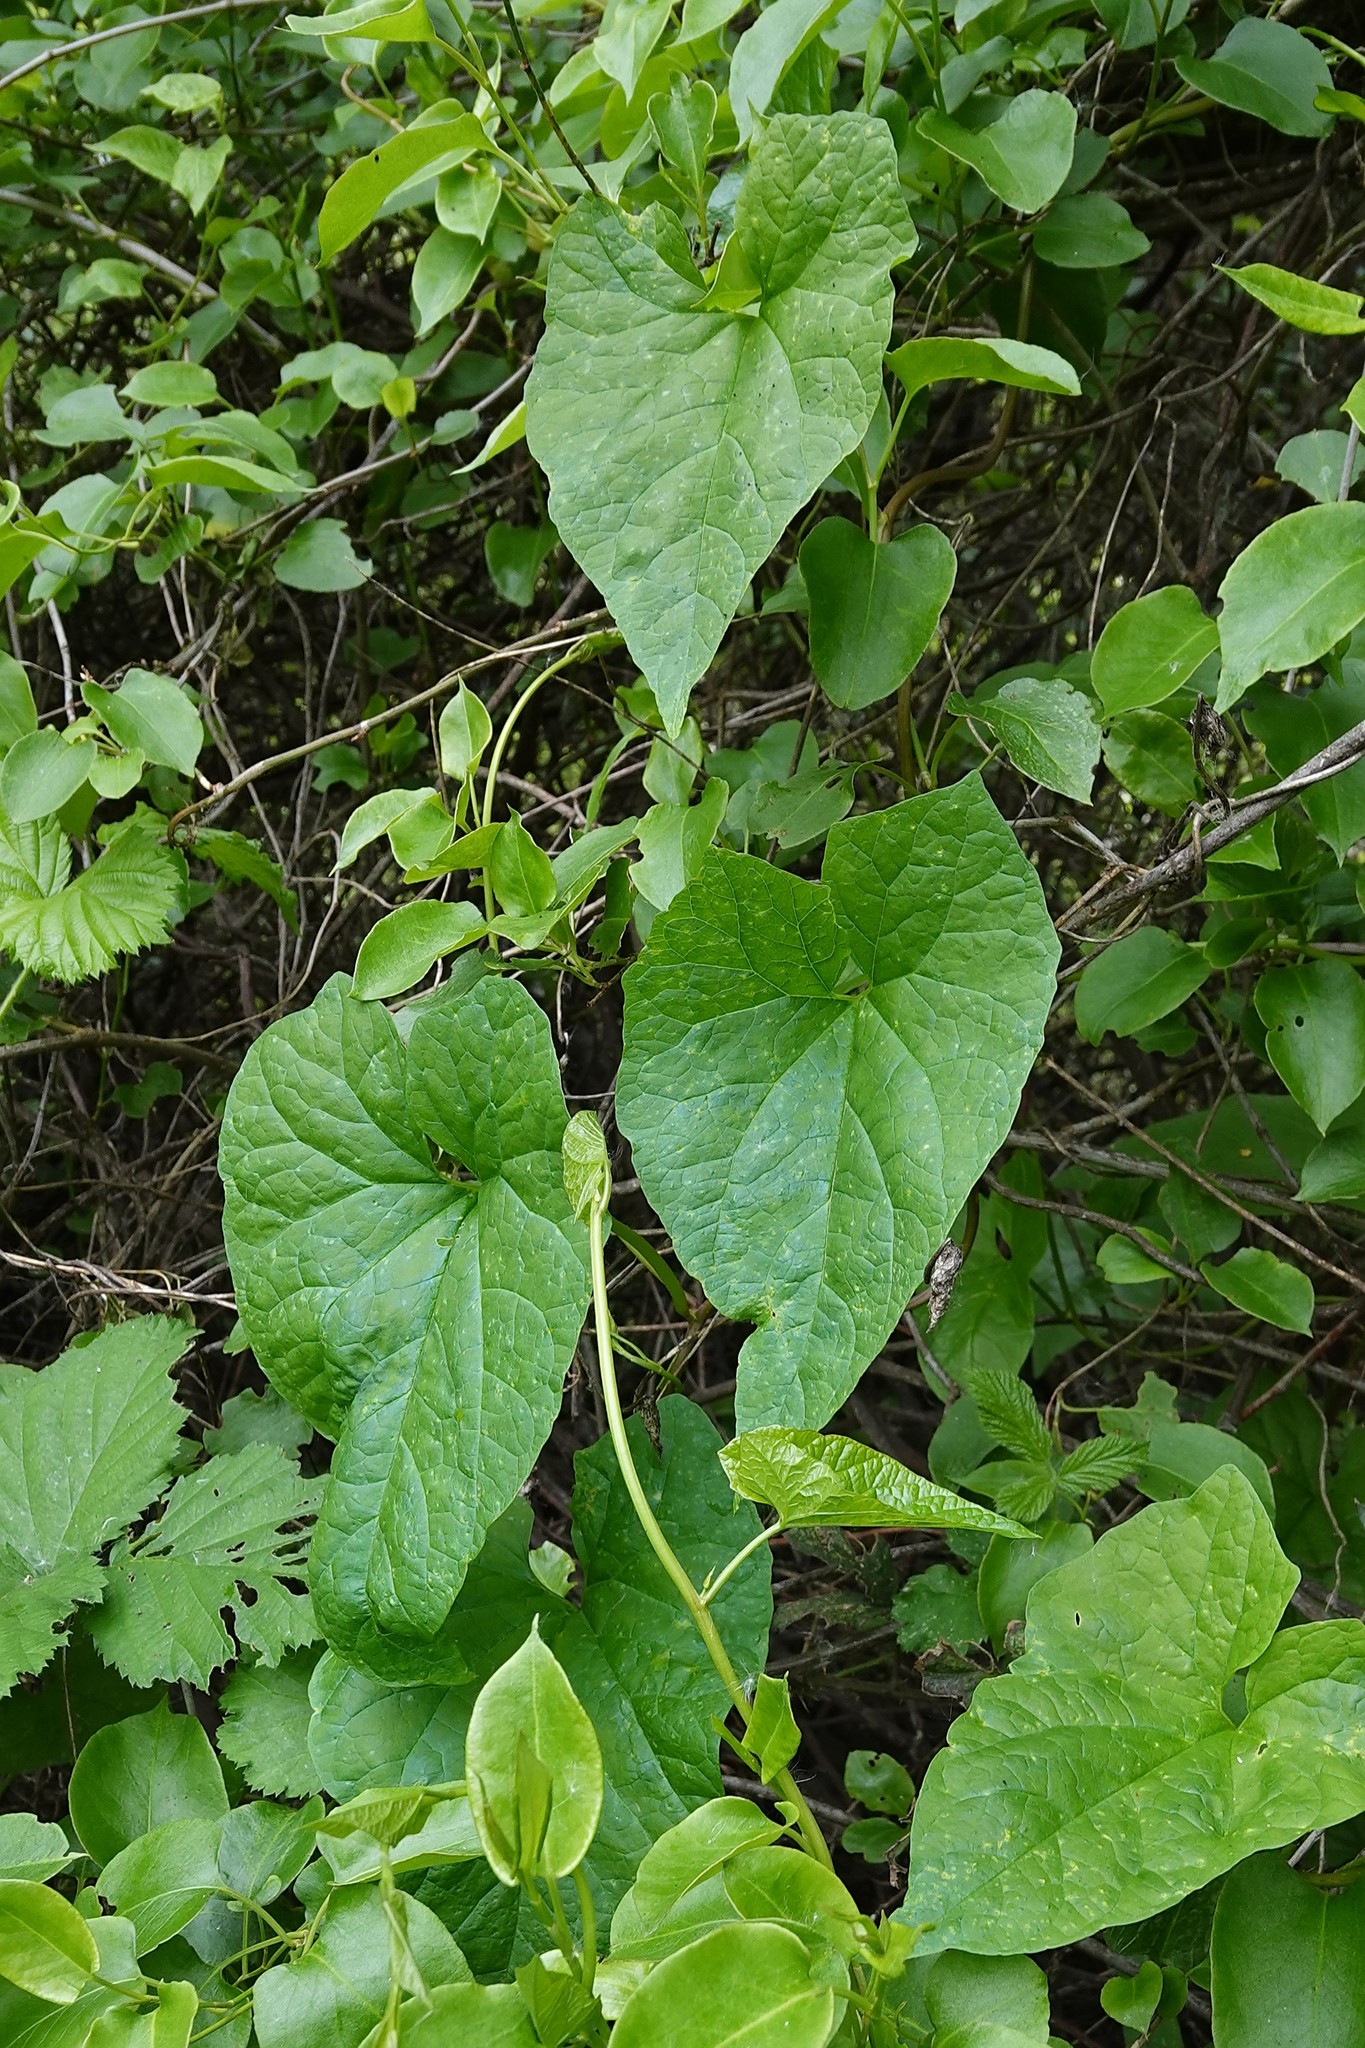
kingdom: Plantae
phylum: Tracheophyta
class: Magnoliopsida
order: Solanales
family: Convolvulaceae
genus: Calystegia
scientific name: Calystegia silvatica
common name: Large bindweed
